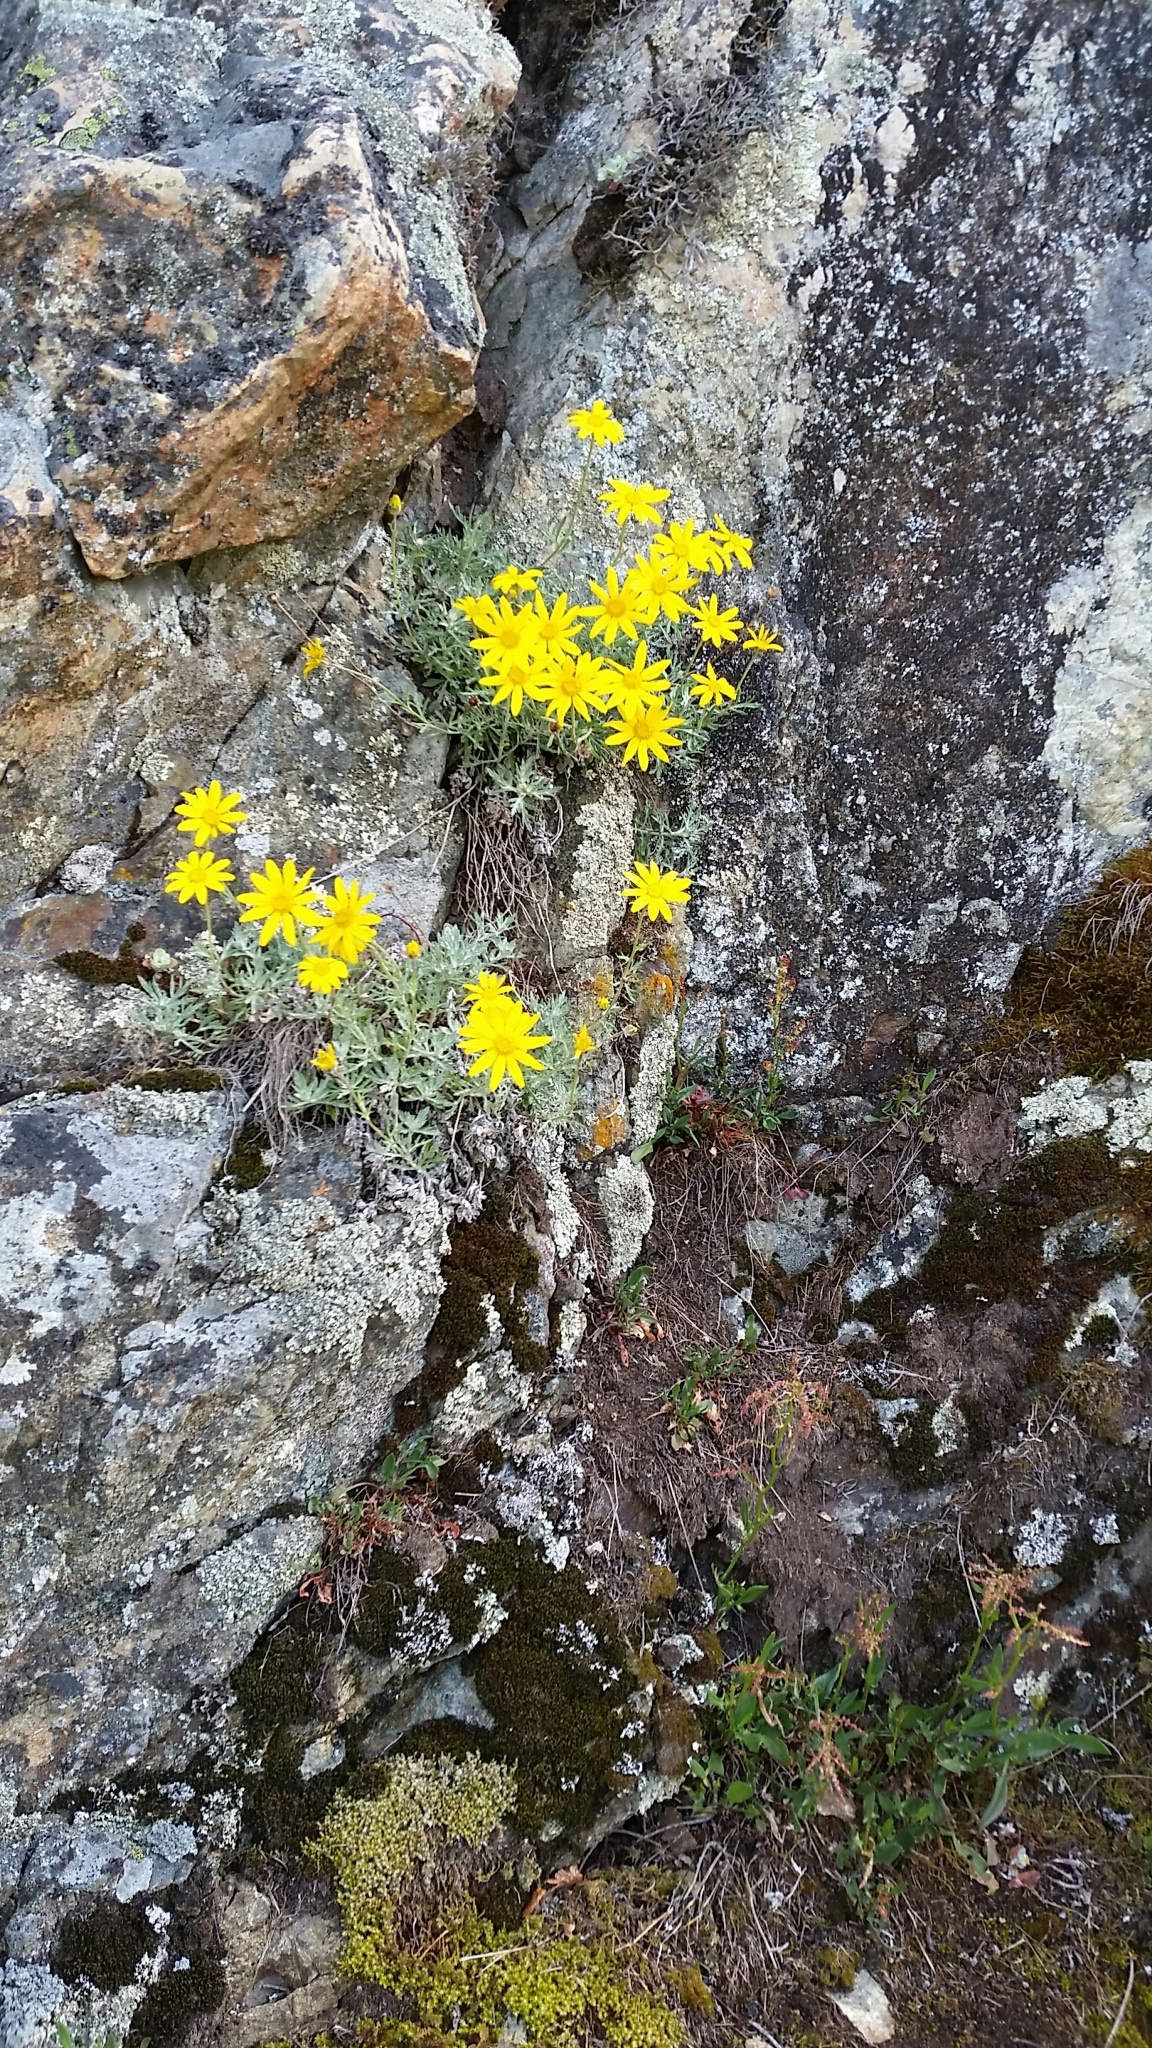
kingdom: Plantae
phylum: Tracheophyta
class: Magnoliopsida
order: Asterales
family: Asteraceae
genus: Eriophyllum
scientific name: Eriophyllum lanatum
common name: Common woolly-sunflower
